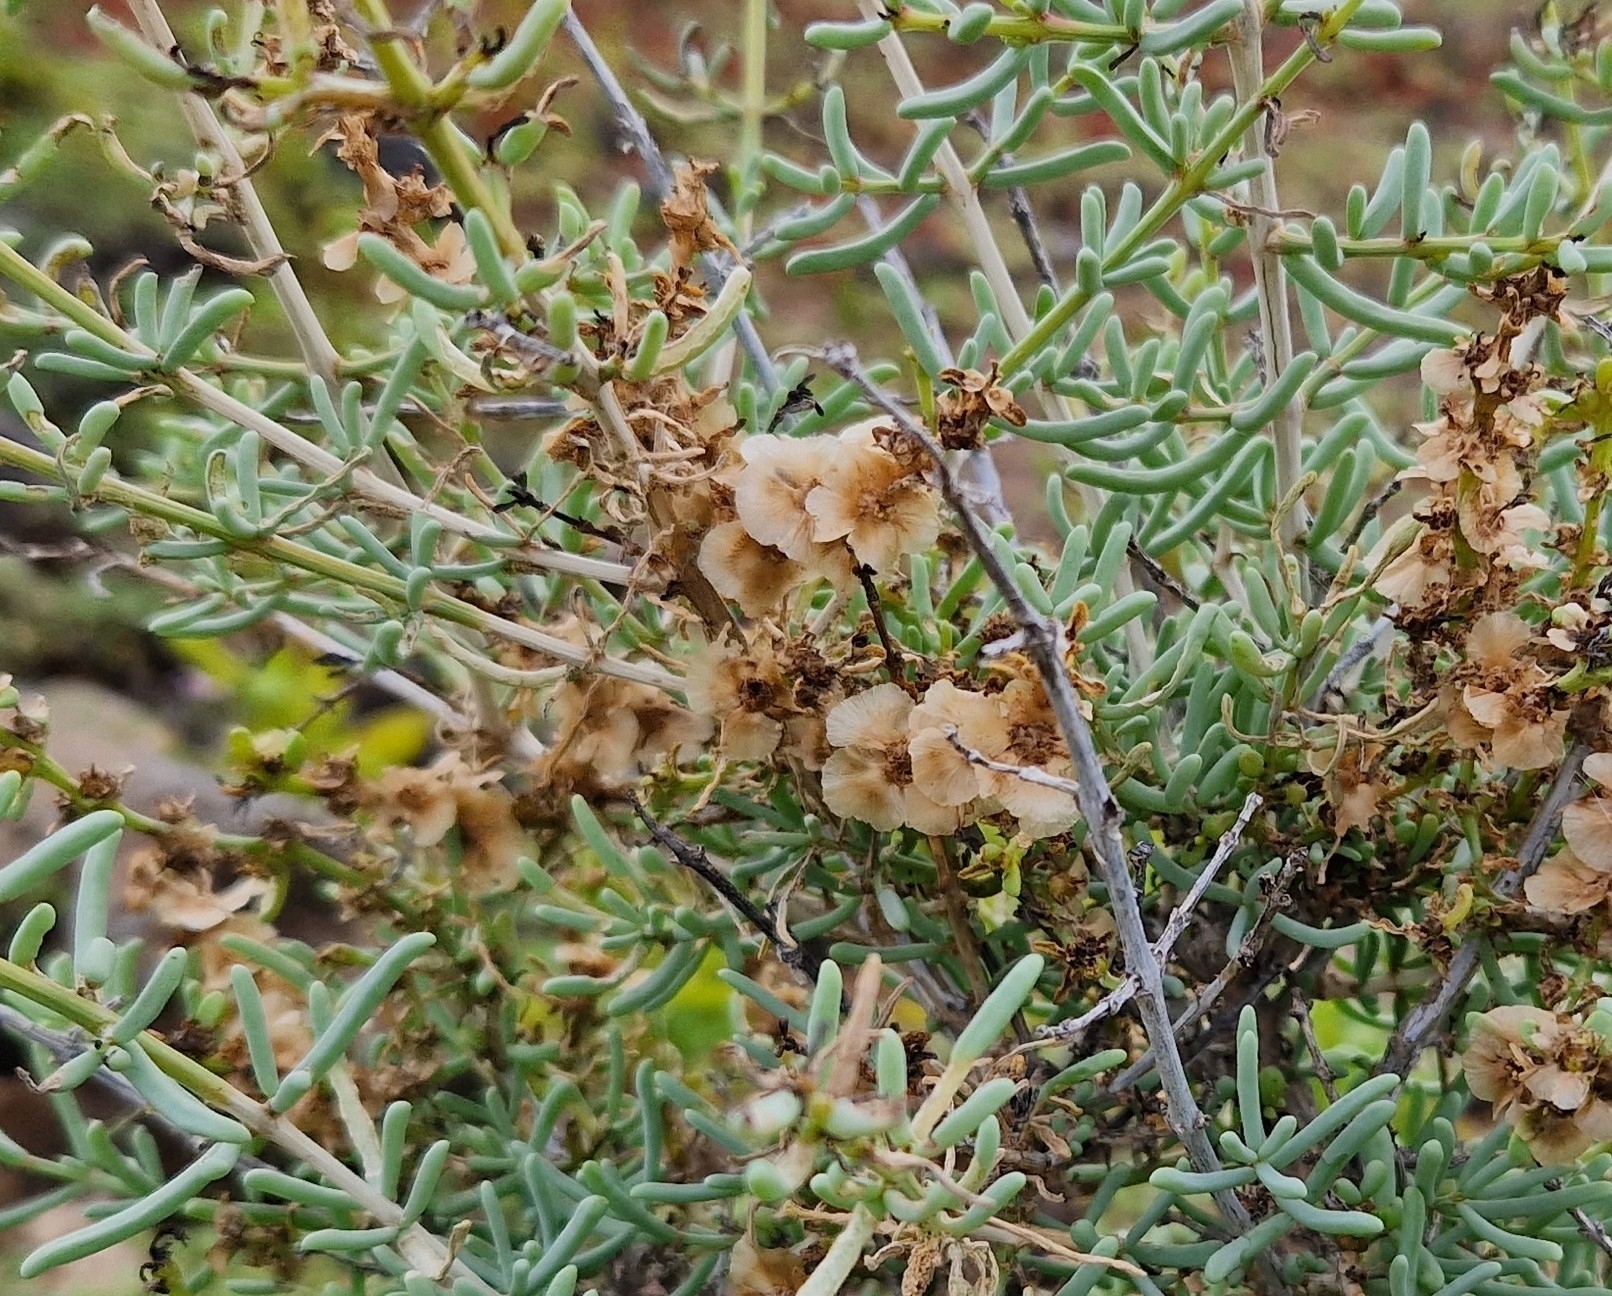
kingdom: Plantae
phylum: Tracheophyta
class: Magnoliopsida
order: Caryophyllales
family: Amaranthaceae
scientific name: Amaranthaceae
